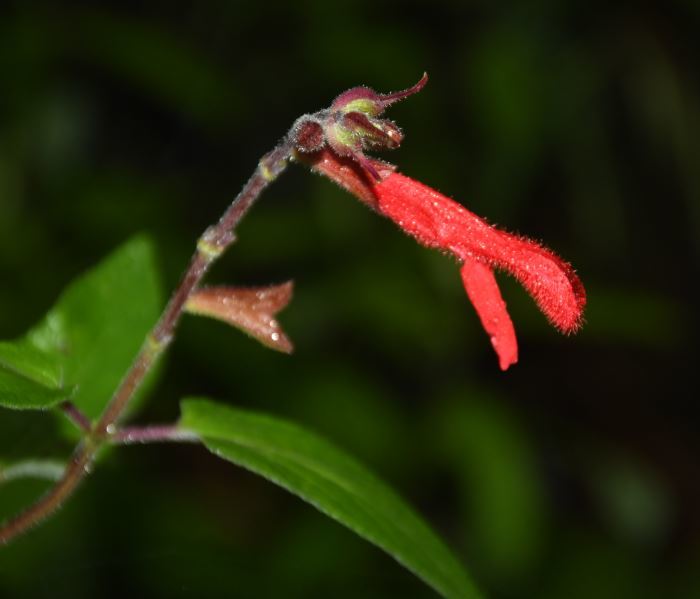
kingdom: Plantae
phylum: Tracheophyta
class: Magnoliopsida
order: Lamiales
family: Lamiaceae
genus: Salvia
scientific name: Salvia fulgens
